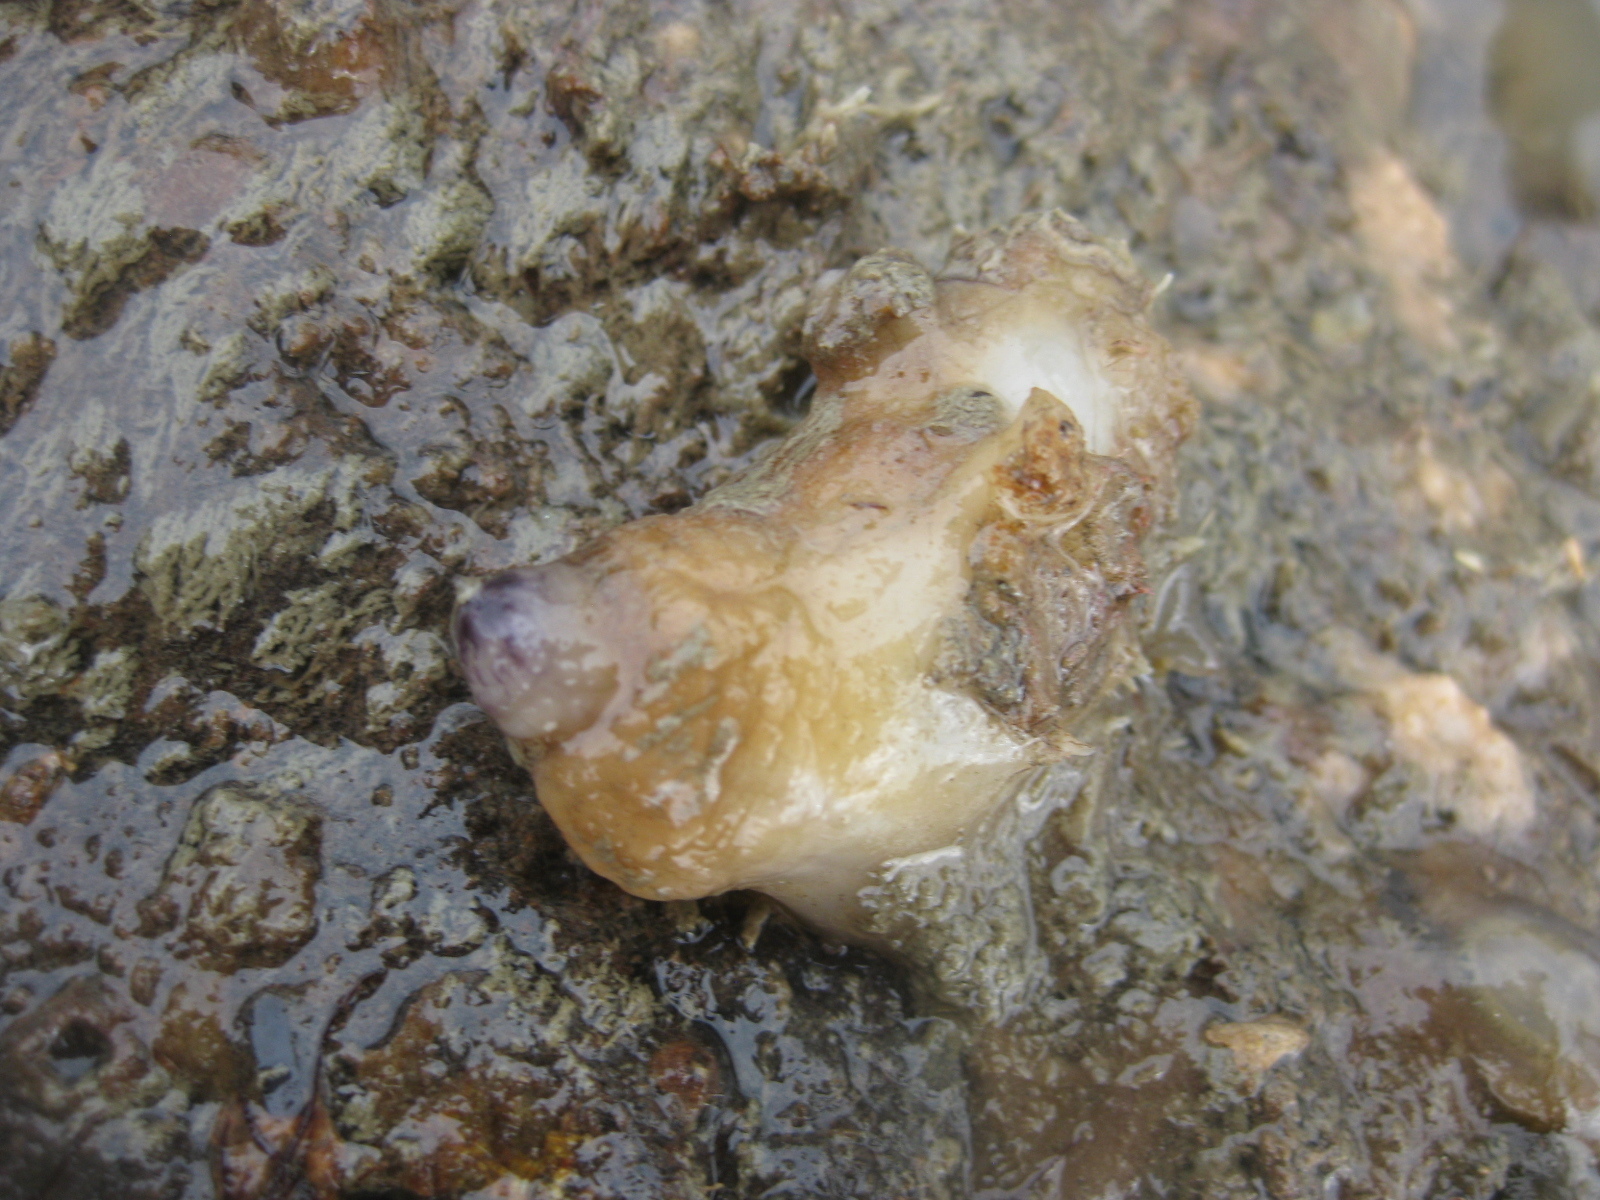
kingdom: Animalia
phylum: Chordata
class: Ascidiacea
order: Stolidobranchia
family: Styelidae
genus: Asterocarpa
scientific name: Asterocarpa coerulea
